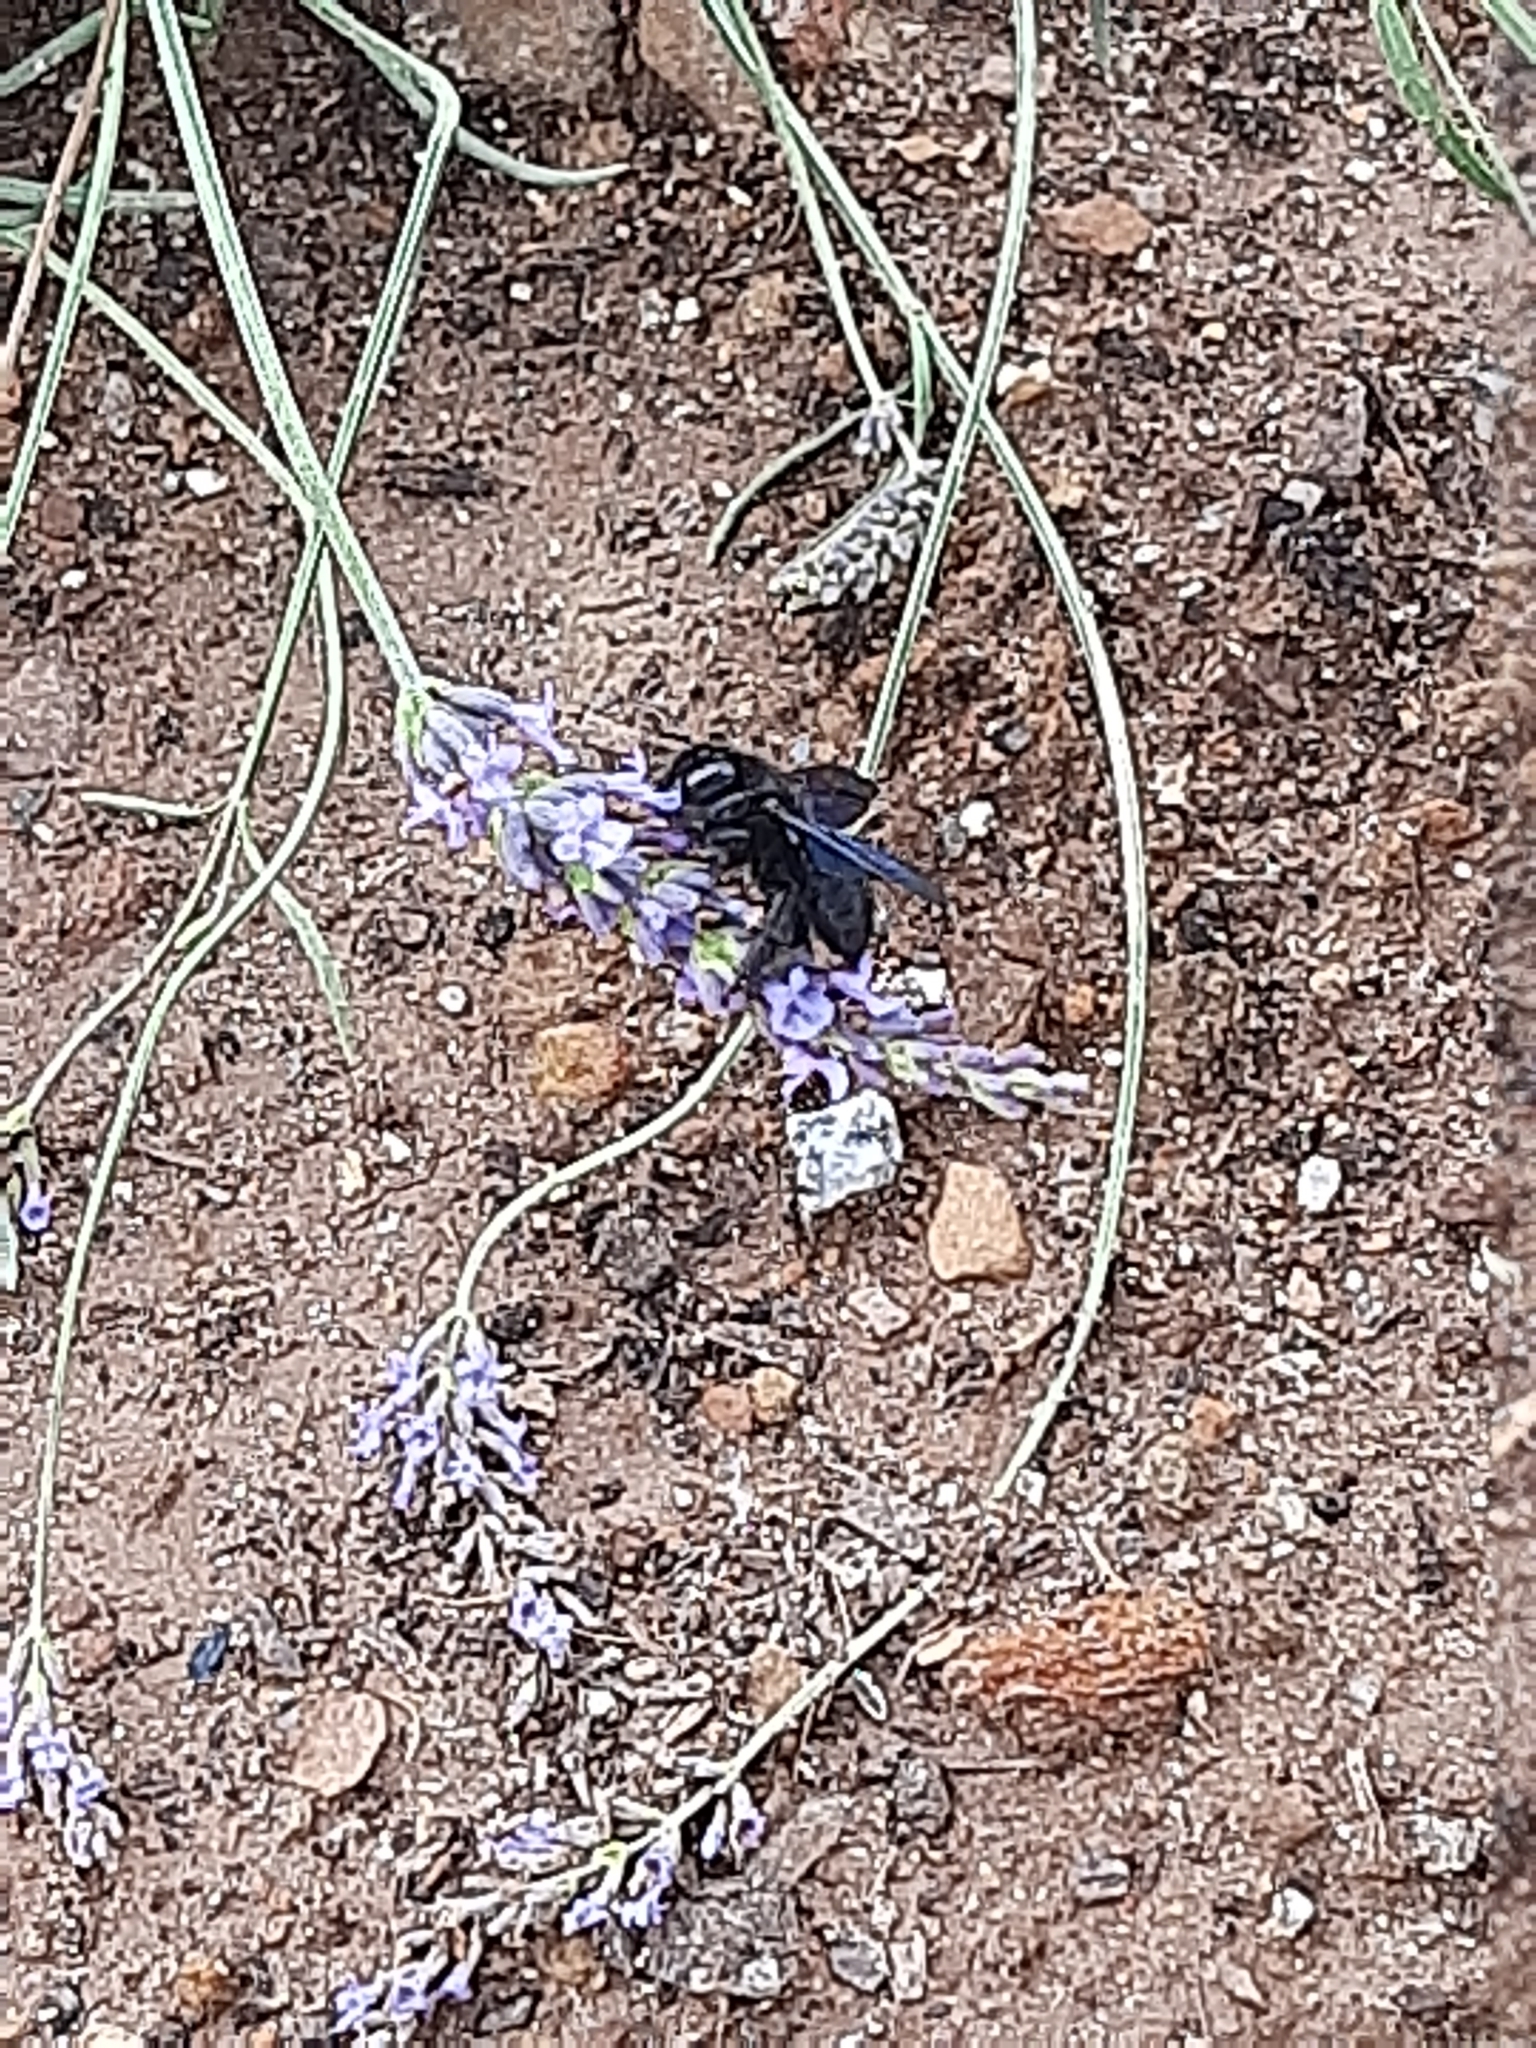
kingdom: Animalia
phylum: Arthropoda
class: Insecta
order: Hymenoptera
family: Apidae
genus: Xylocopa
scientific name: Xylocopa violacea
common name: Violet carpenter bee
